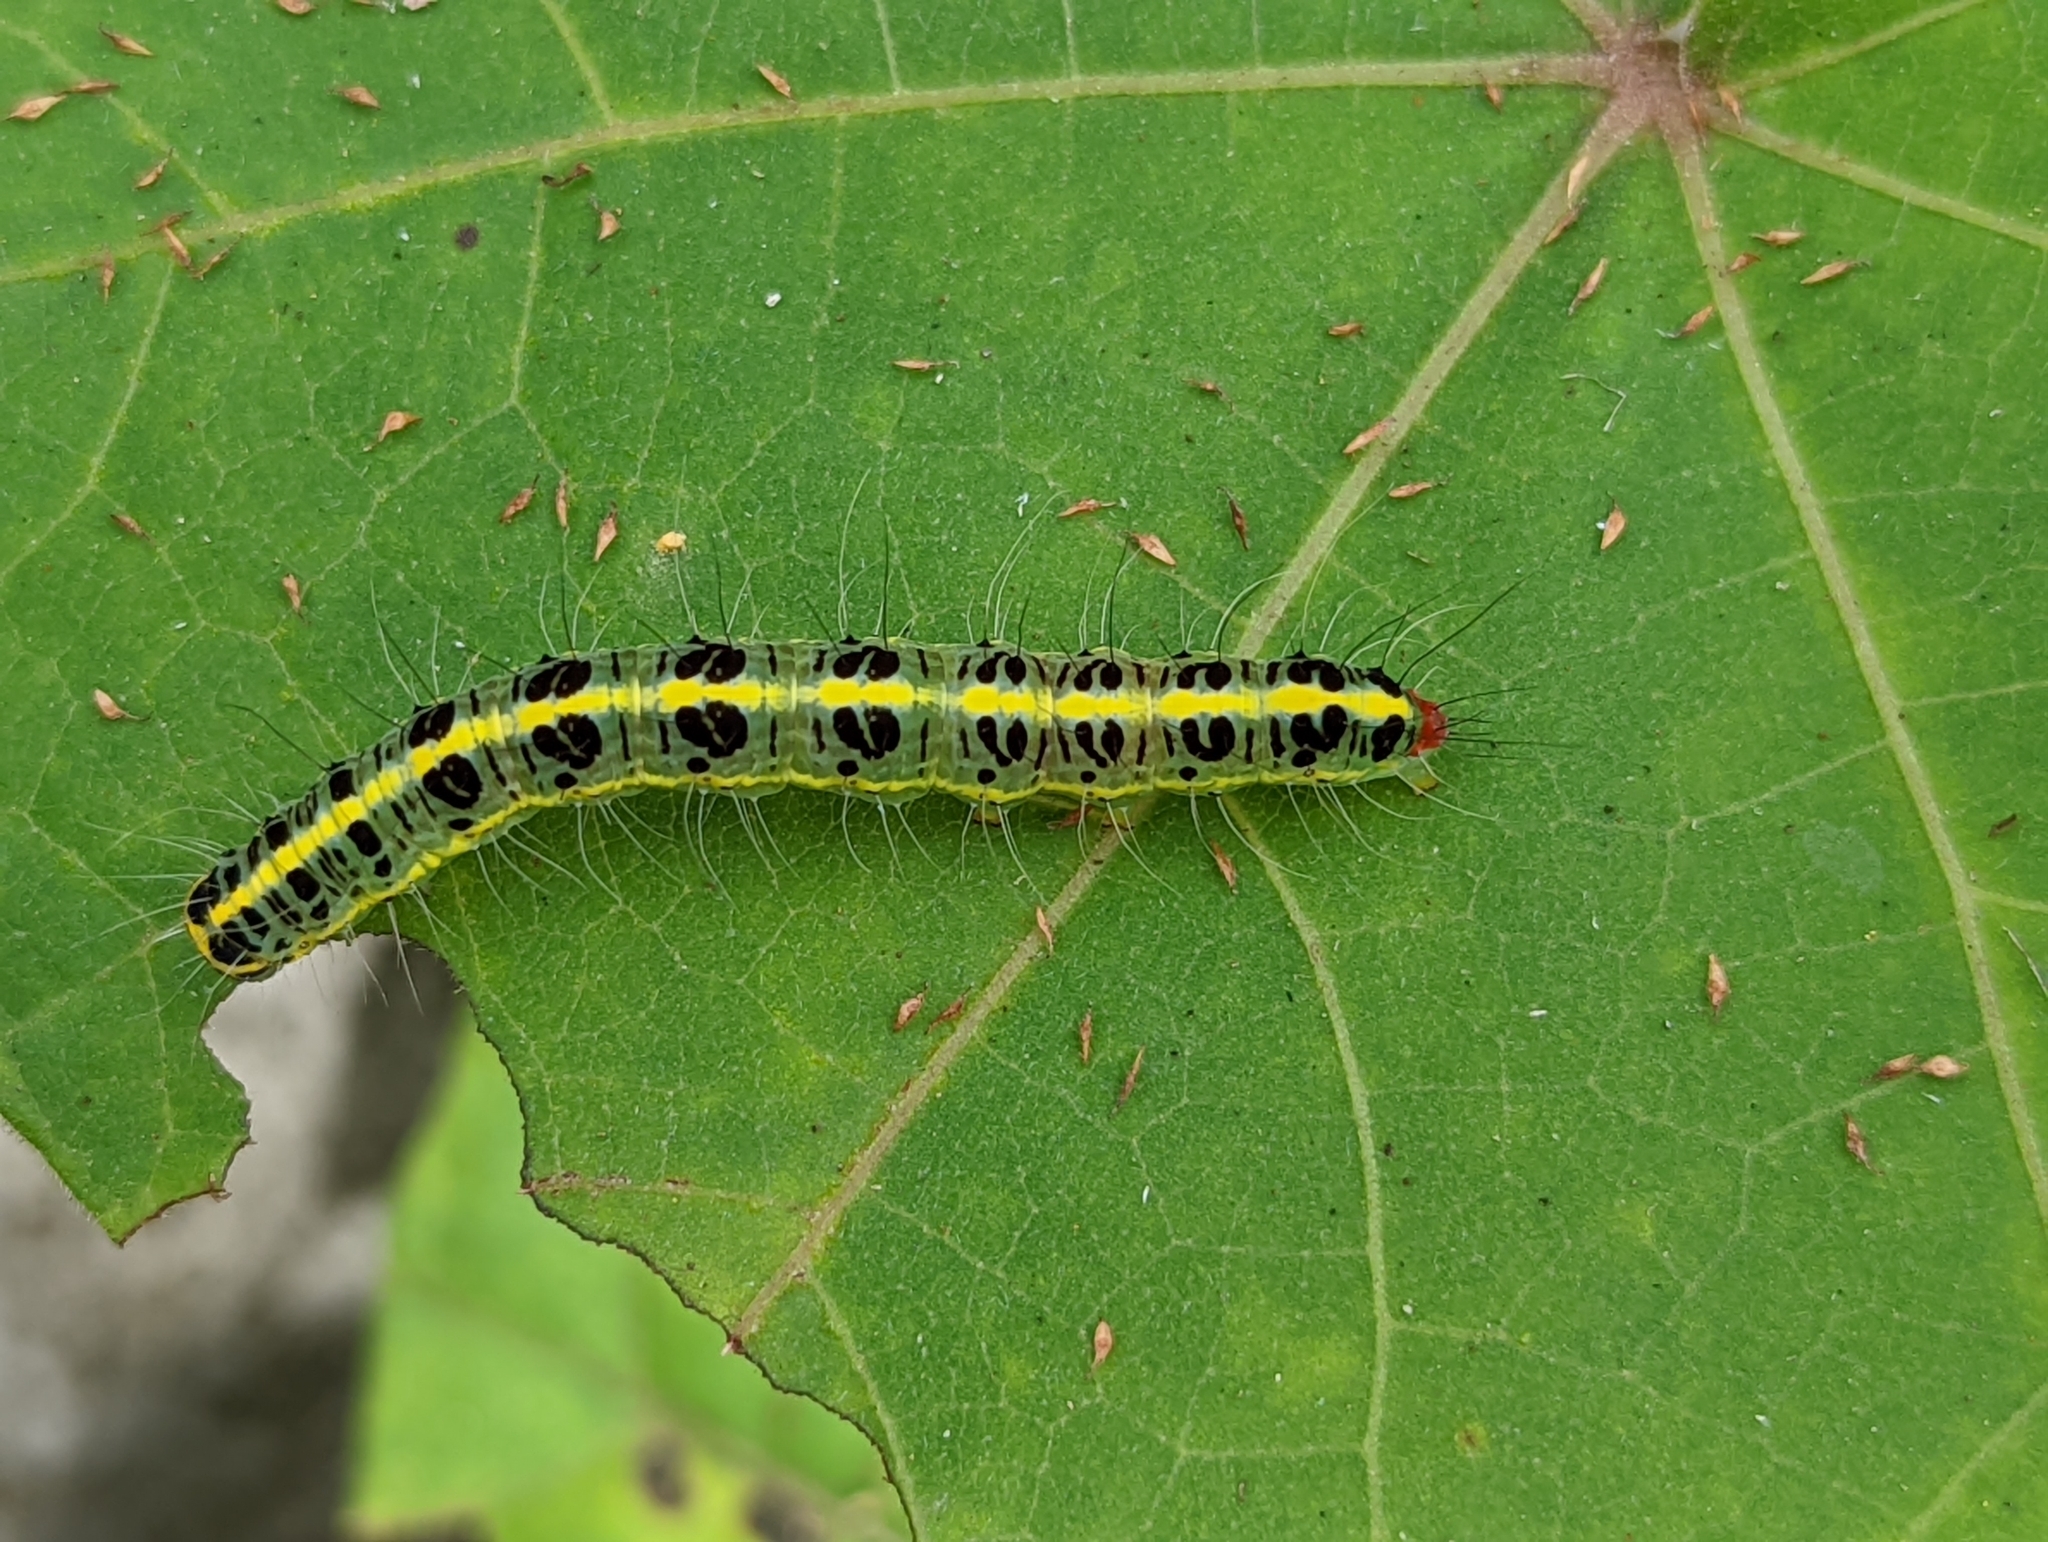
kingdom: Animalia
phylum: Arthropoda
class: Insecta
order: Lepidoptera
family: Nolidae
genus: Xanthodes
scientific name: Xanthodes transversa
